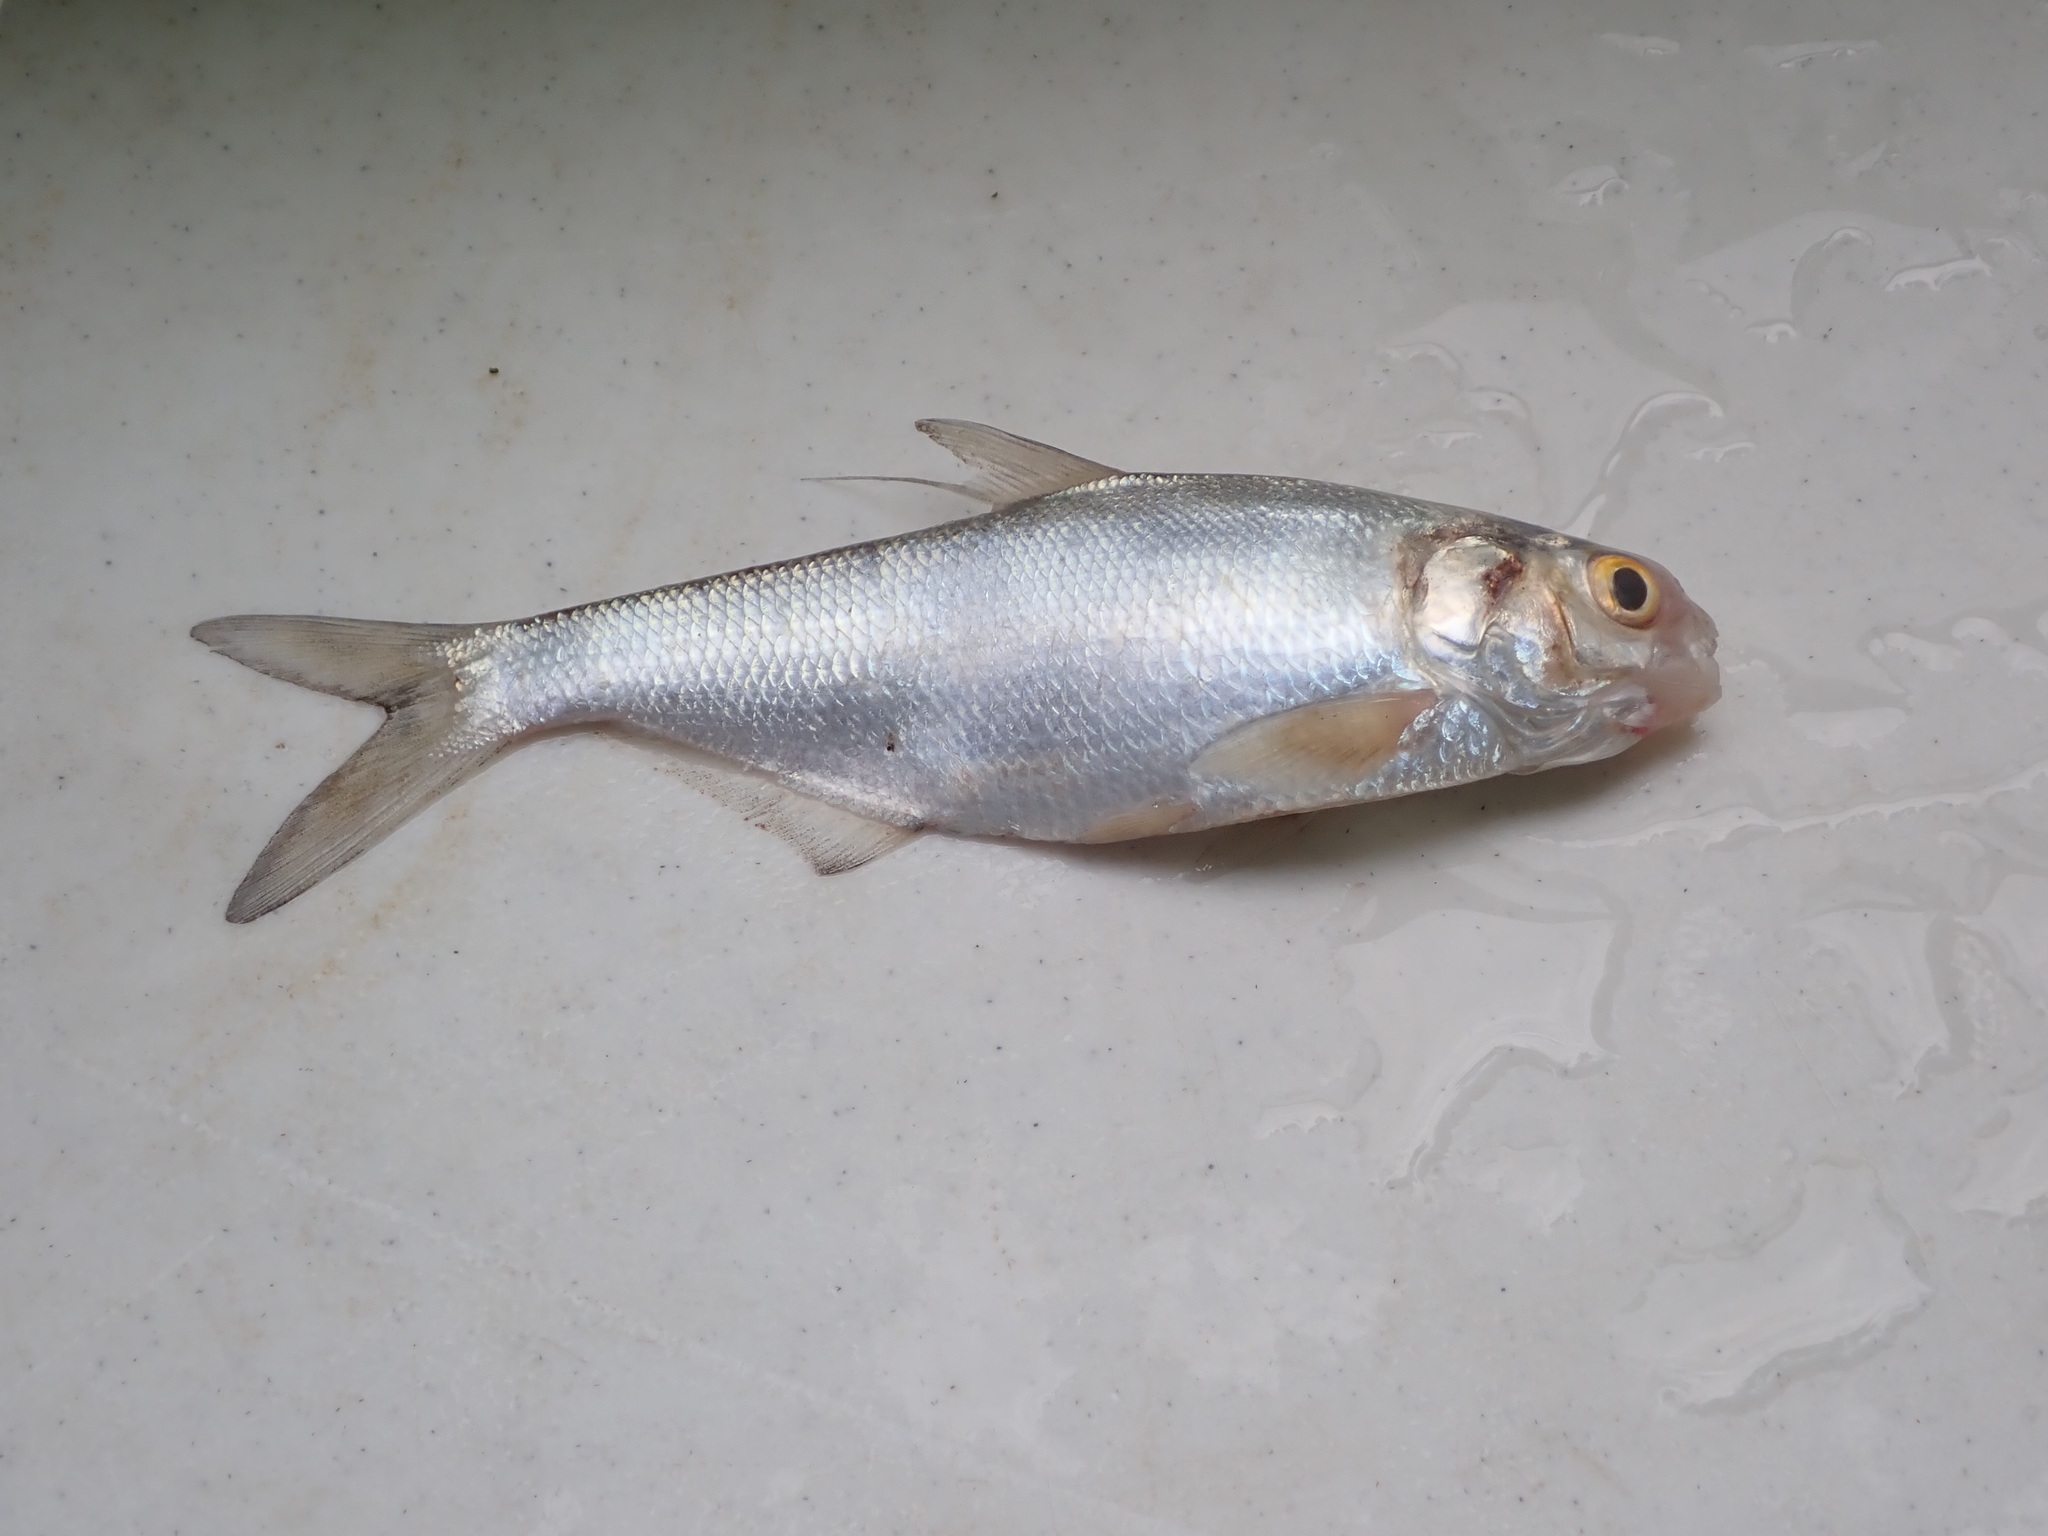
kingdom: Animalia
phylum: Chordata
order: Clupeiformes
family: Clupeidae
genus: Dorosoma
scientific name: Dorosoma cepedianum
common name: Gizzard shad
